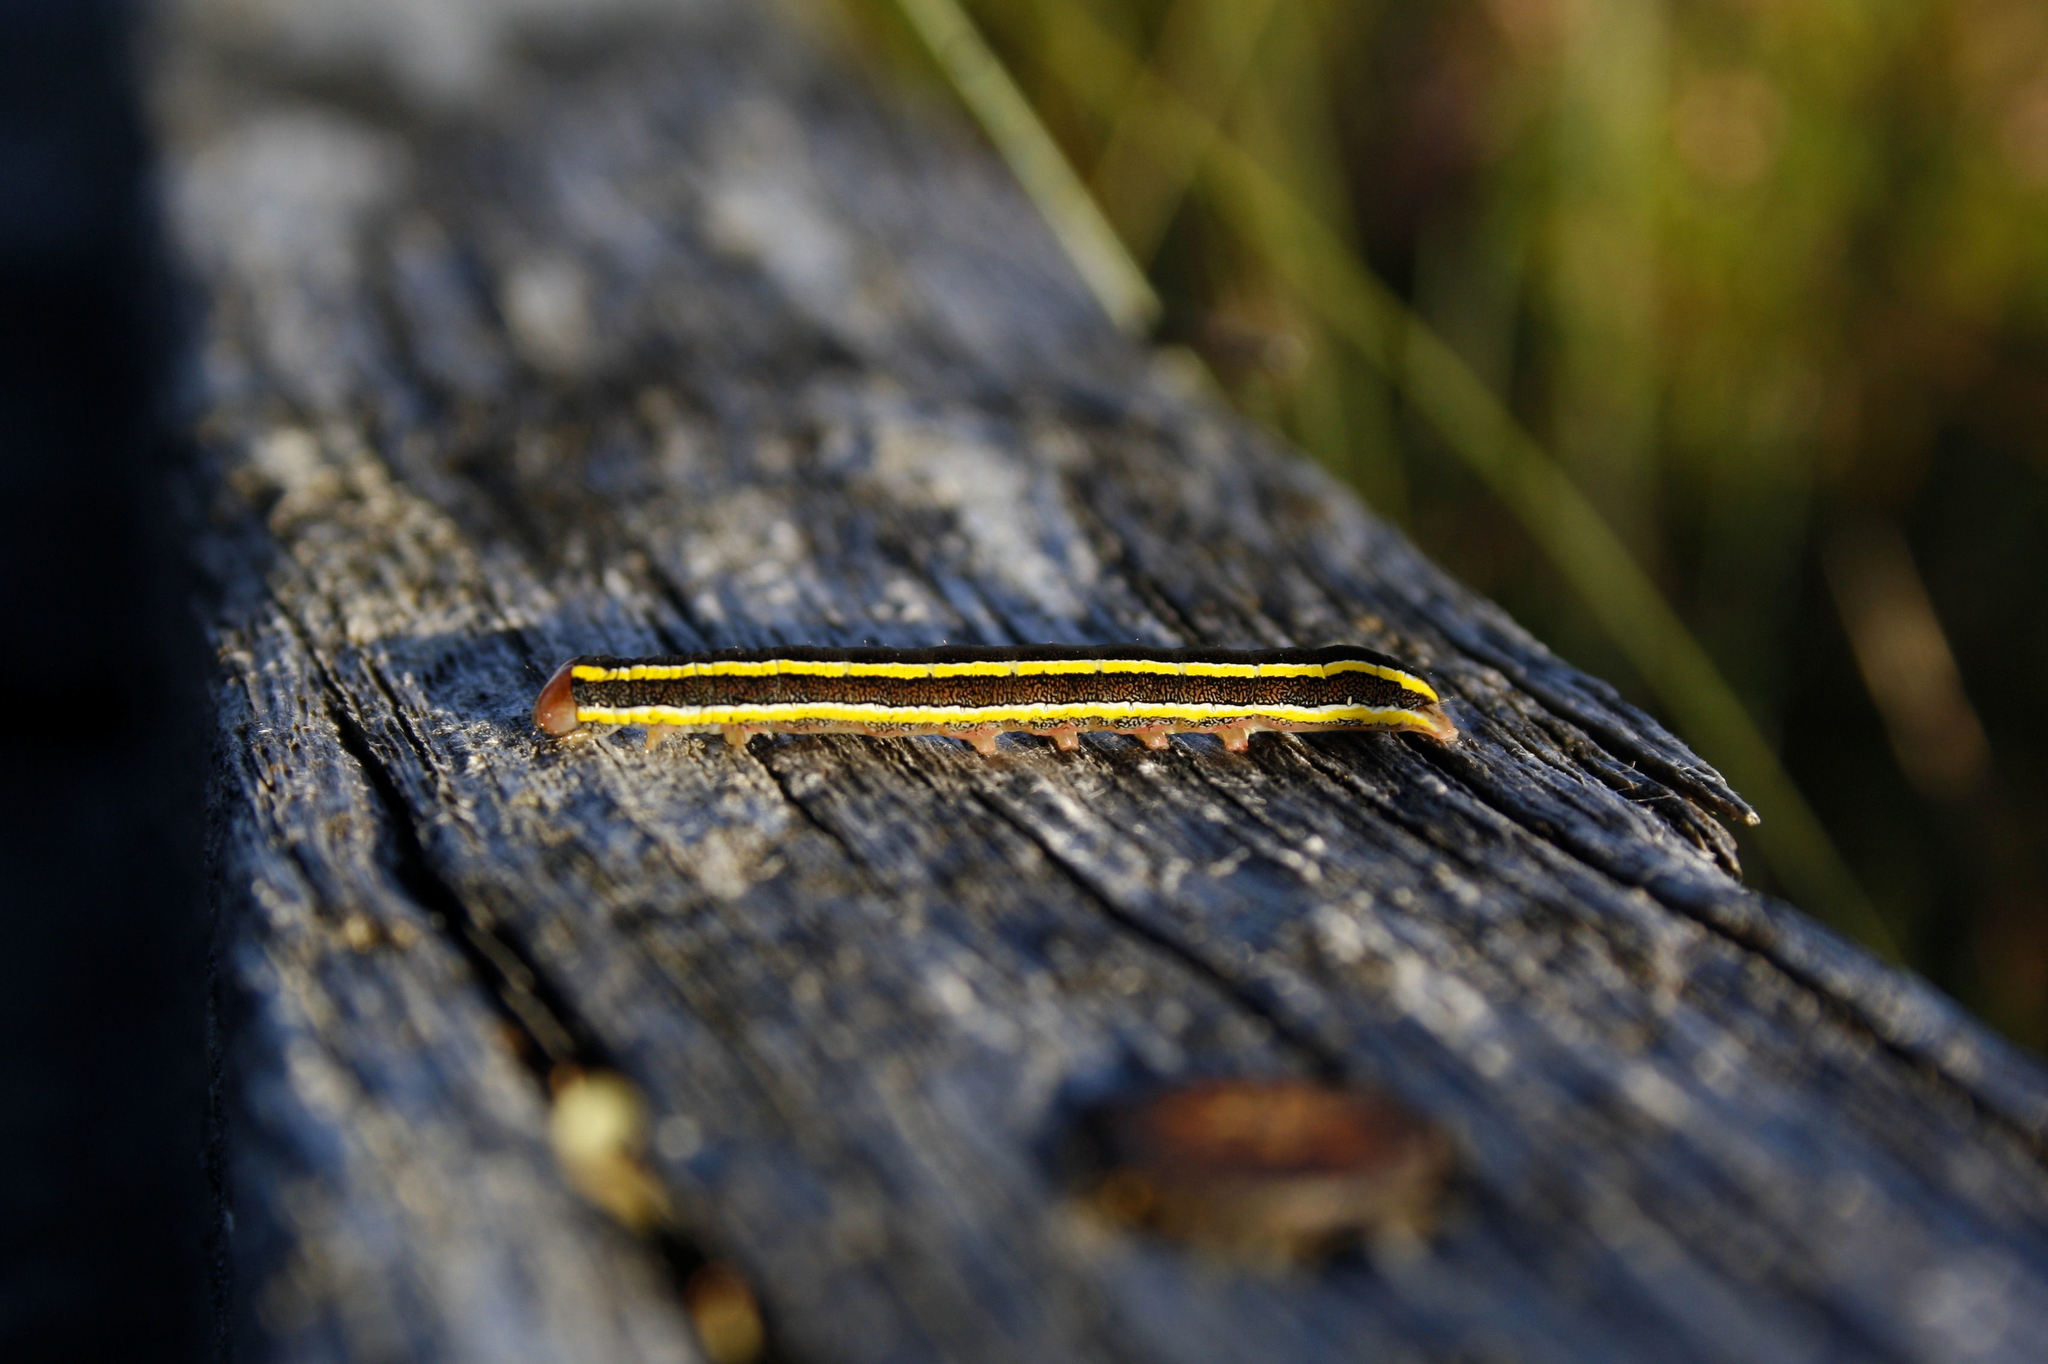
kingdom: Animalia
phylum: Arthropoda
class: Insecta
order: Lepidoptera
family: Noctuidae
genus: Ceramica
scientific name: Ceramica pisi
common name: Broom moth
